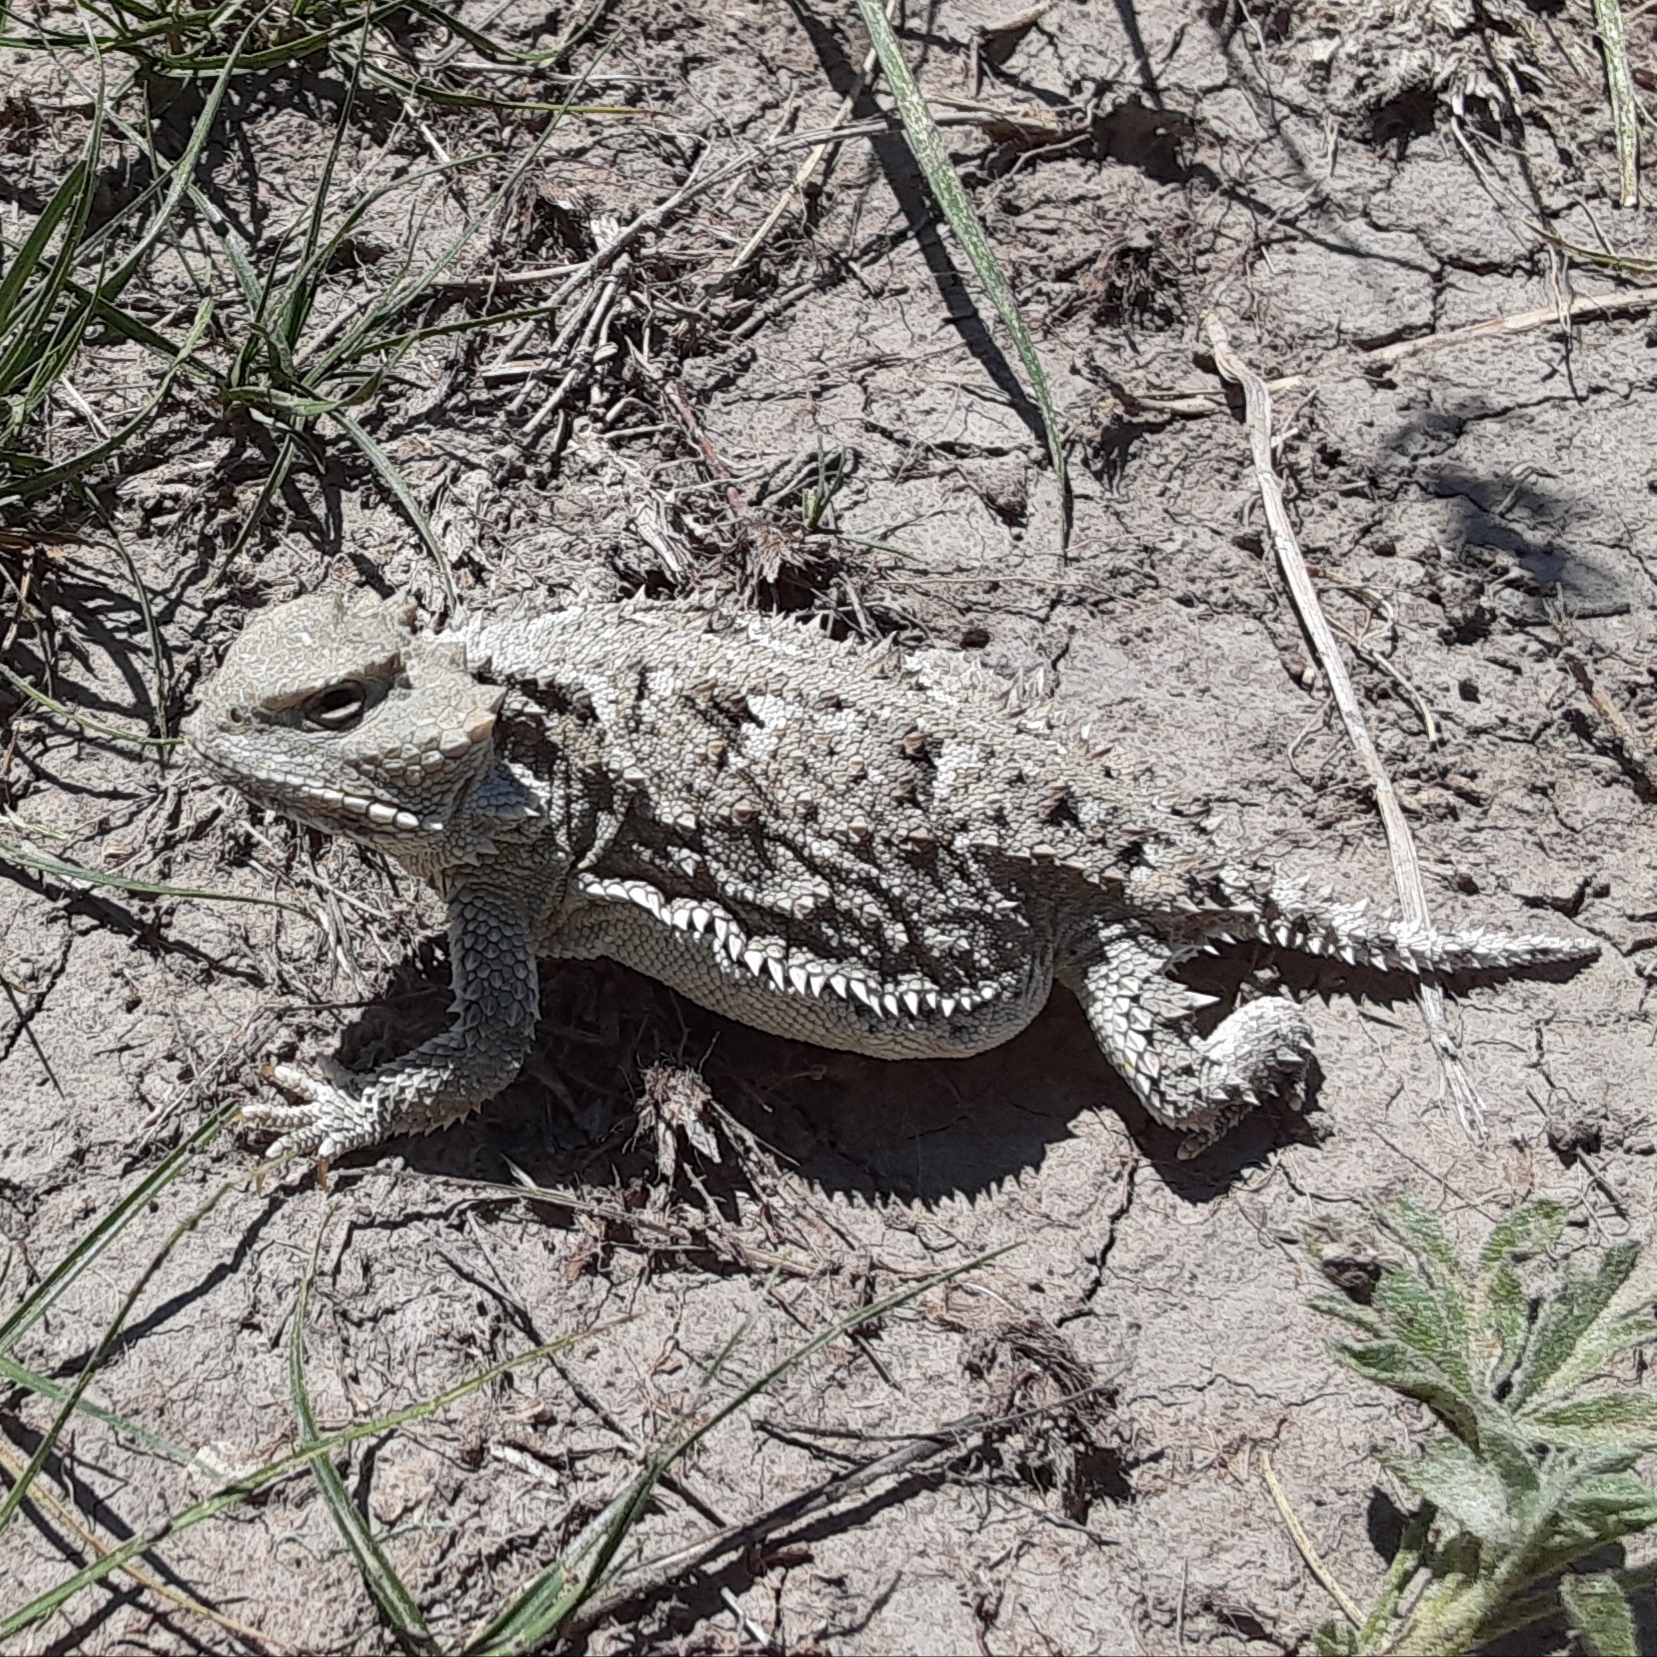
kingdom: Animalia
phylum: Chordata
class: Squamata
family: Phrynosomatidae
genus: Phrynosoma
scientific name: Phrynosoma hernandesi
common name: Greater short-horned lizard
